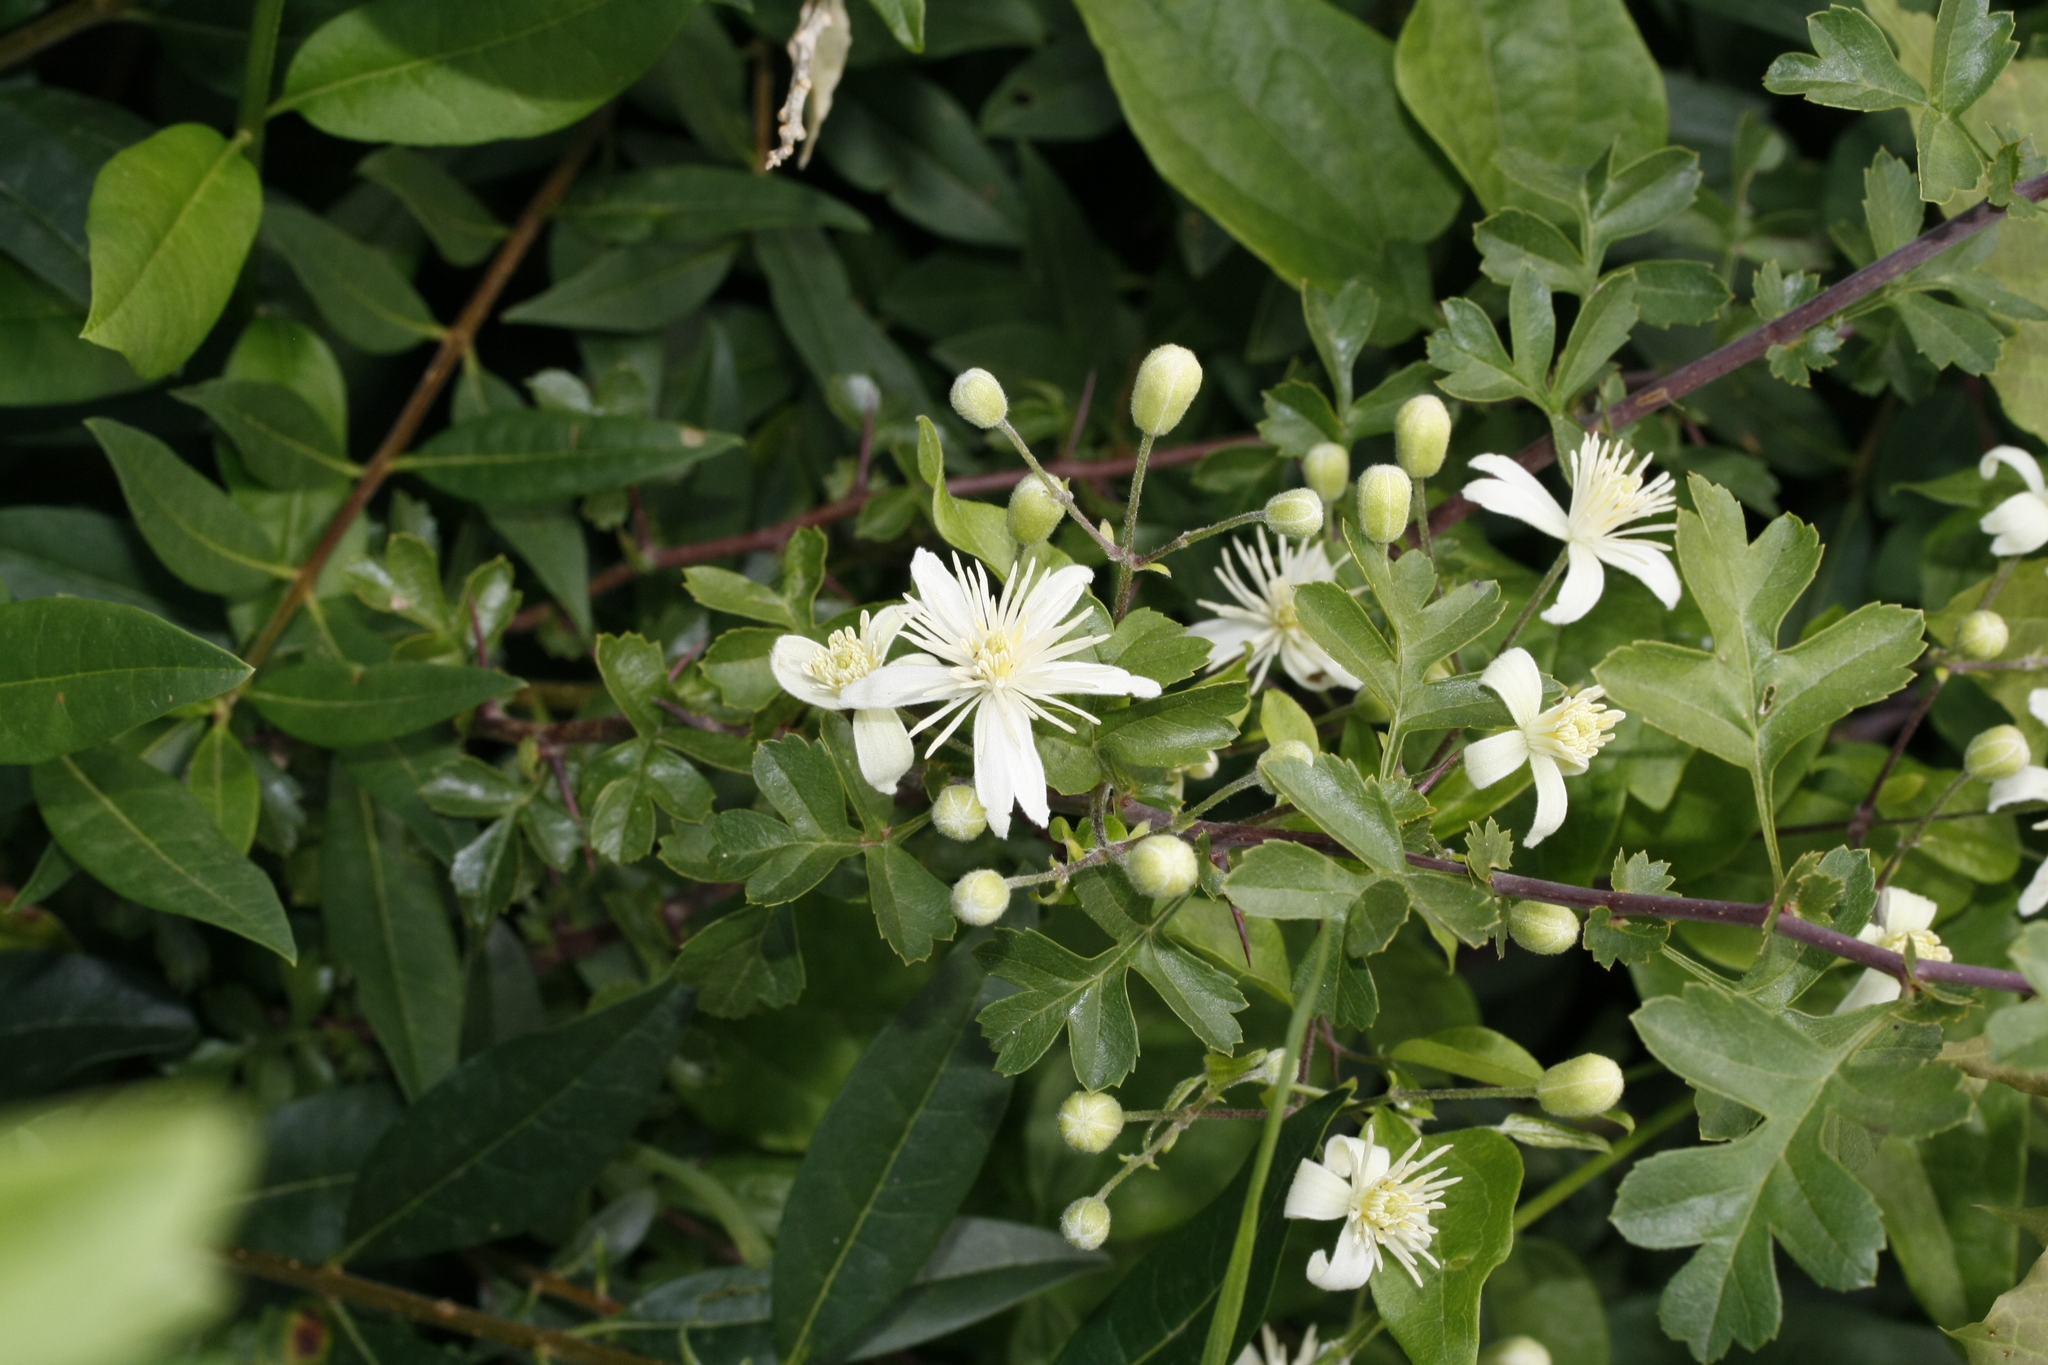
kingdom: Plantae
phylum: Tracheophyta
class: Magnoliopsida
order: Ranunculales
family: Ranunculaceae
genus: Clematis
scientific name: Clematis vitalba
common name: Evergreen clematis
